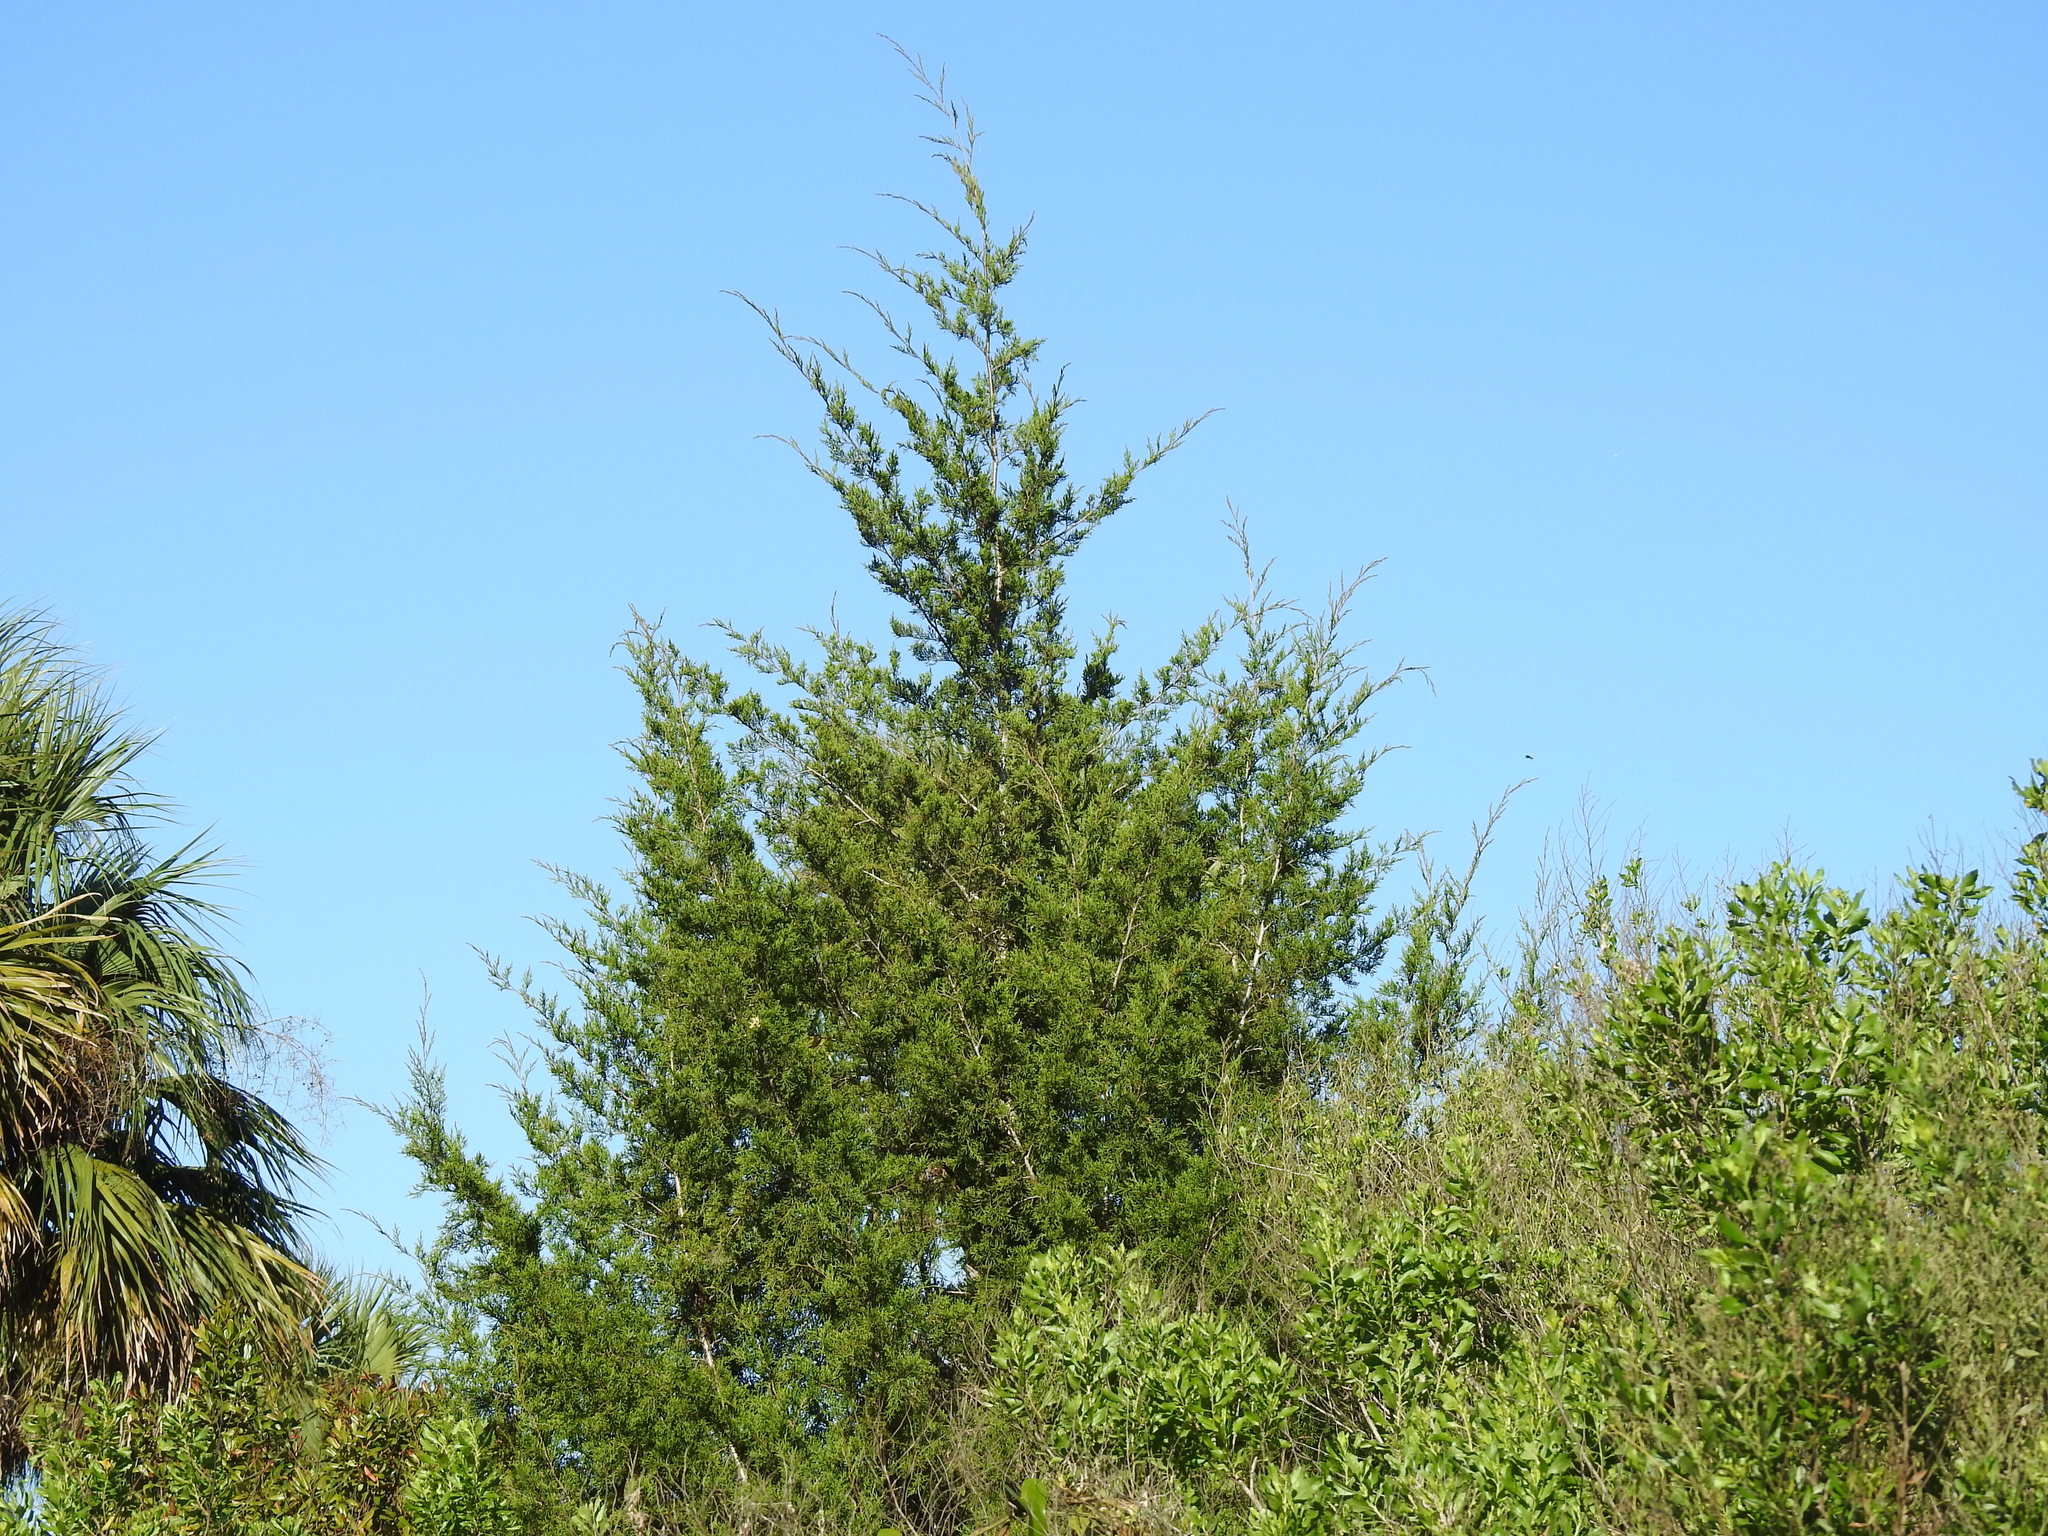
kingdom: Plantae
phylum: Tracheophyta
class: Pinopsida
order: Pinales
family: Cupressaceae
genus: Juniperus
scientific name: Juniperus virginiana
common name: Red juniper
